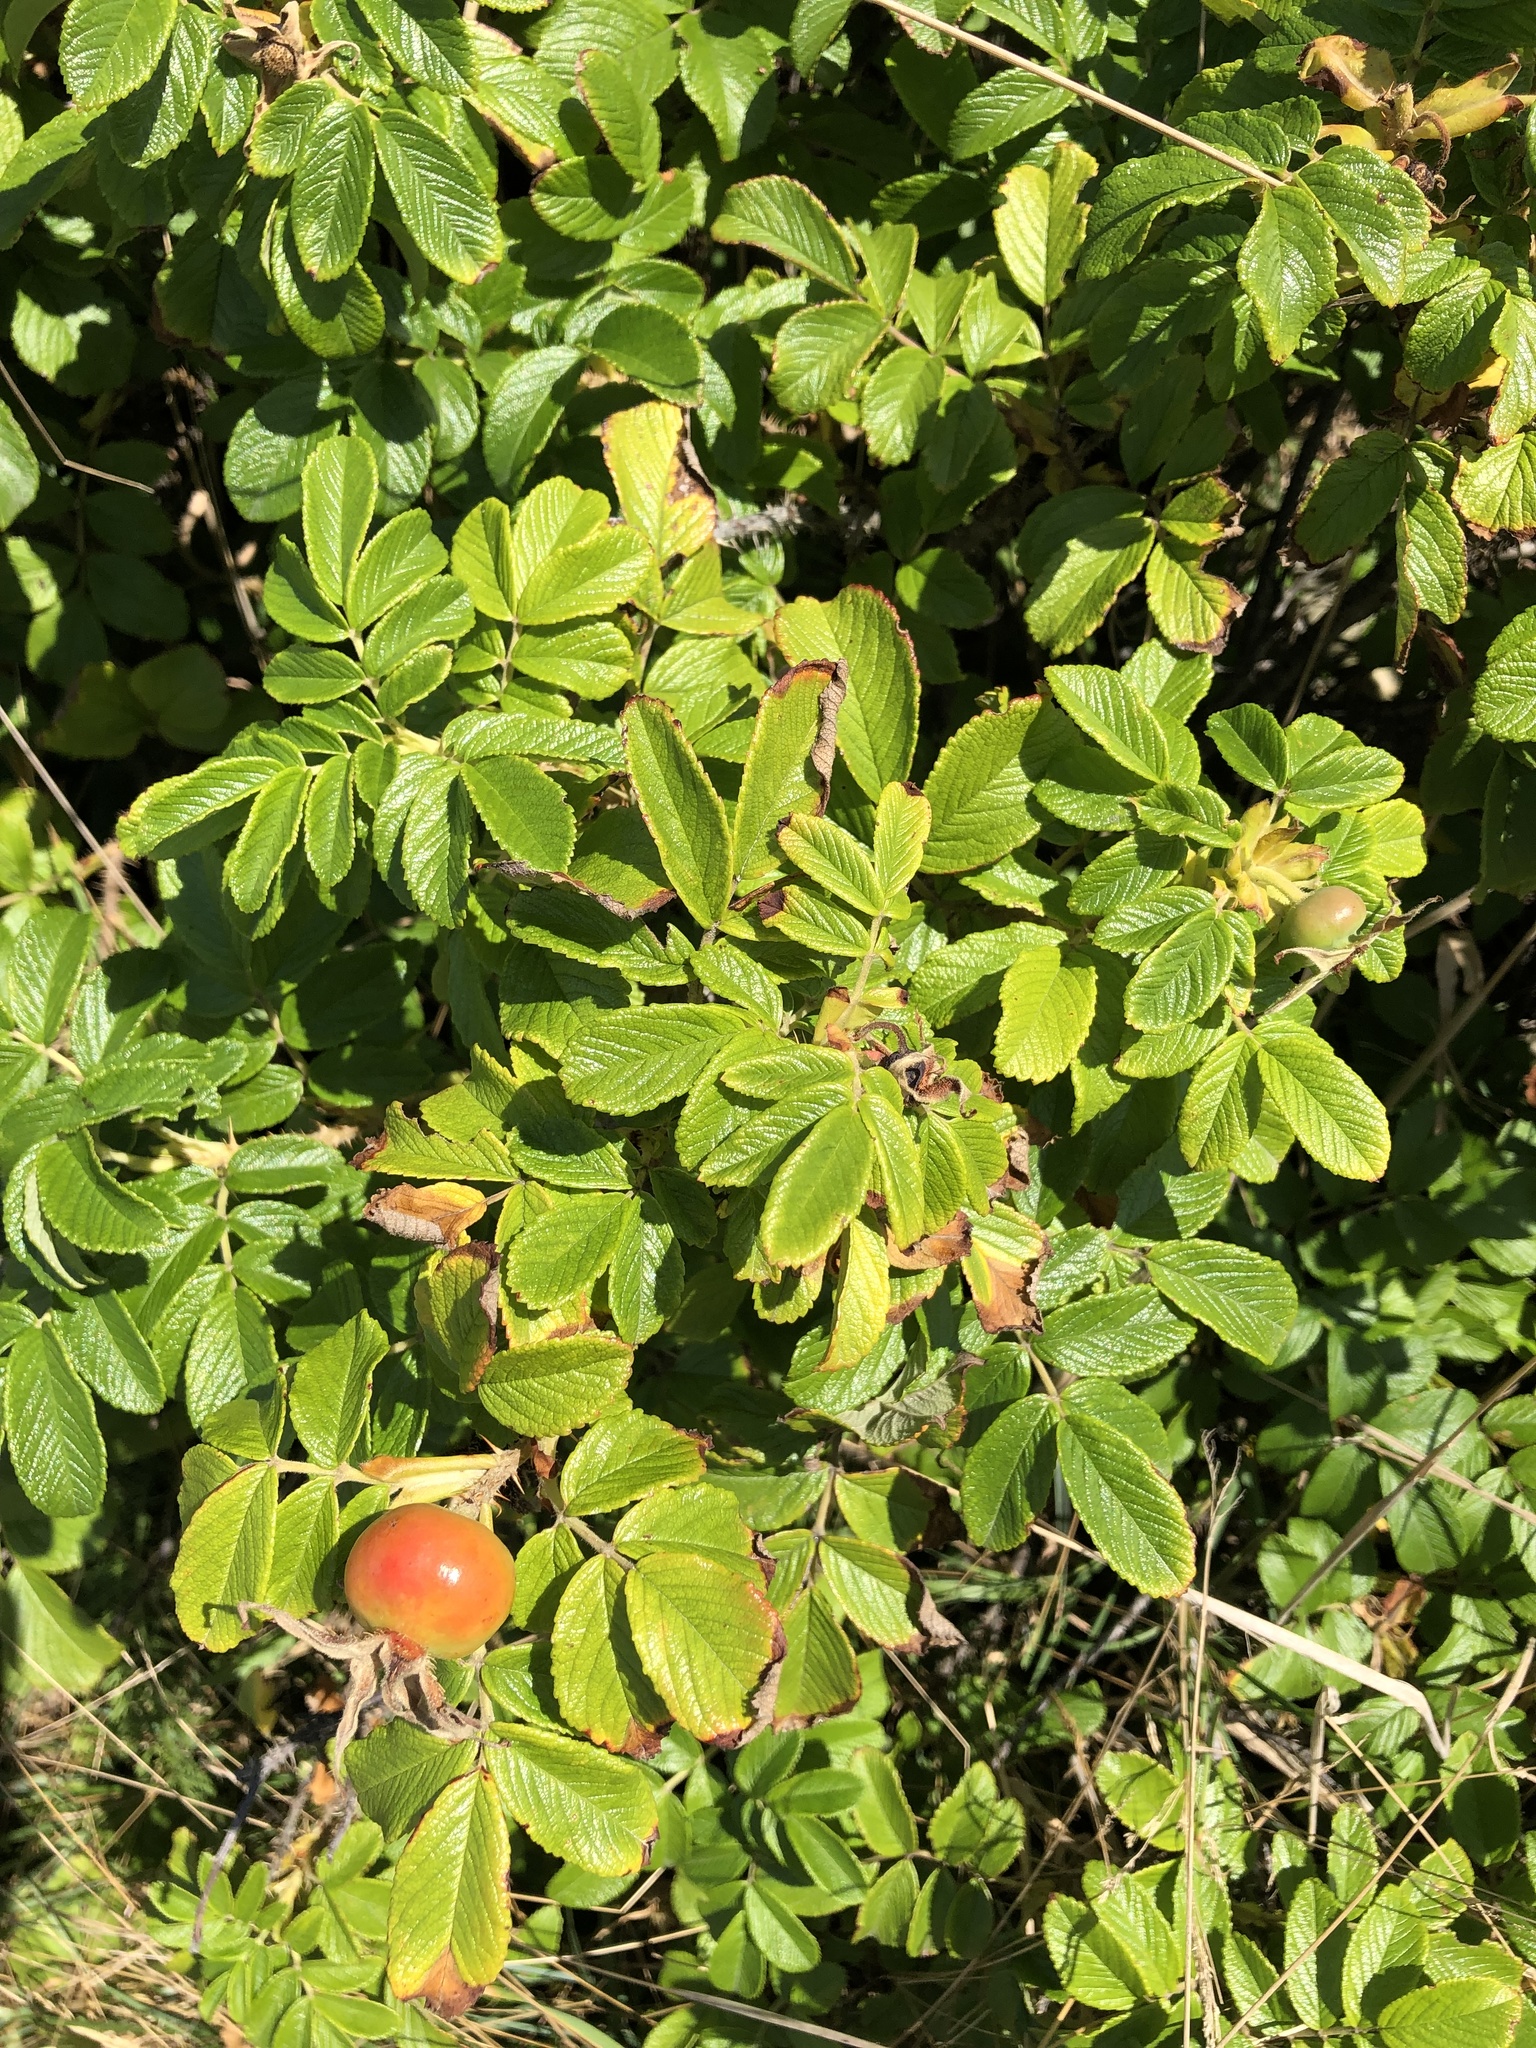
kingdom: Plantae
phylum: Tracheophyta
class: Magnoliopsida
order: Rosales
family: Rosaceae
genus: Rosa
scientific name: Rosa rugosa
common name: Japanese rose
